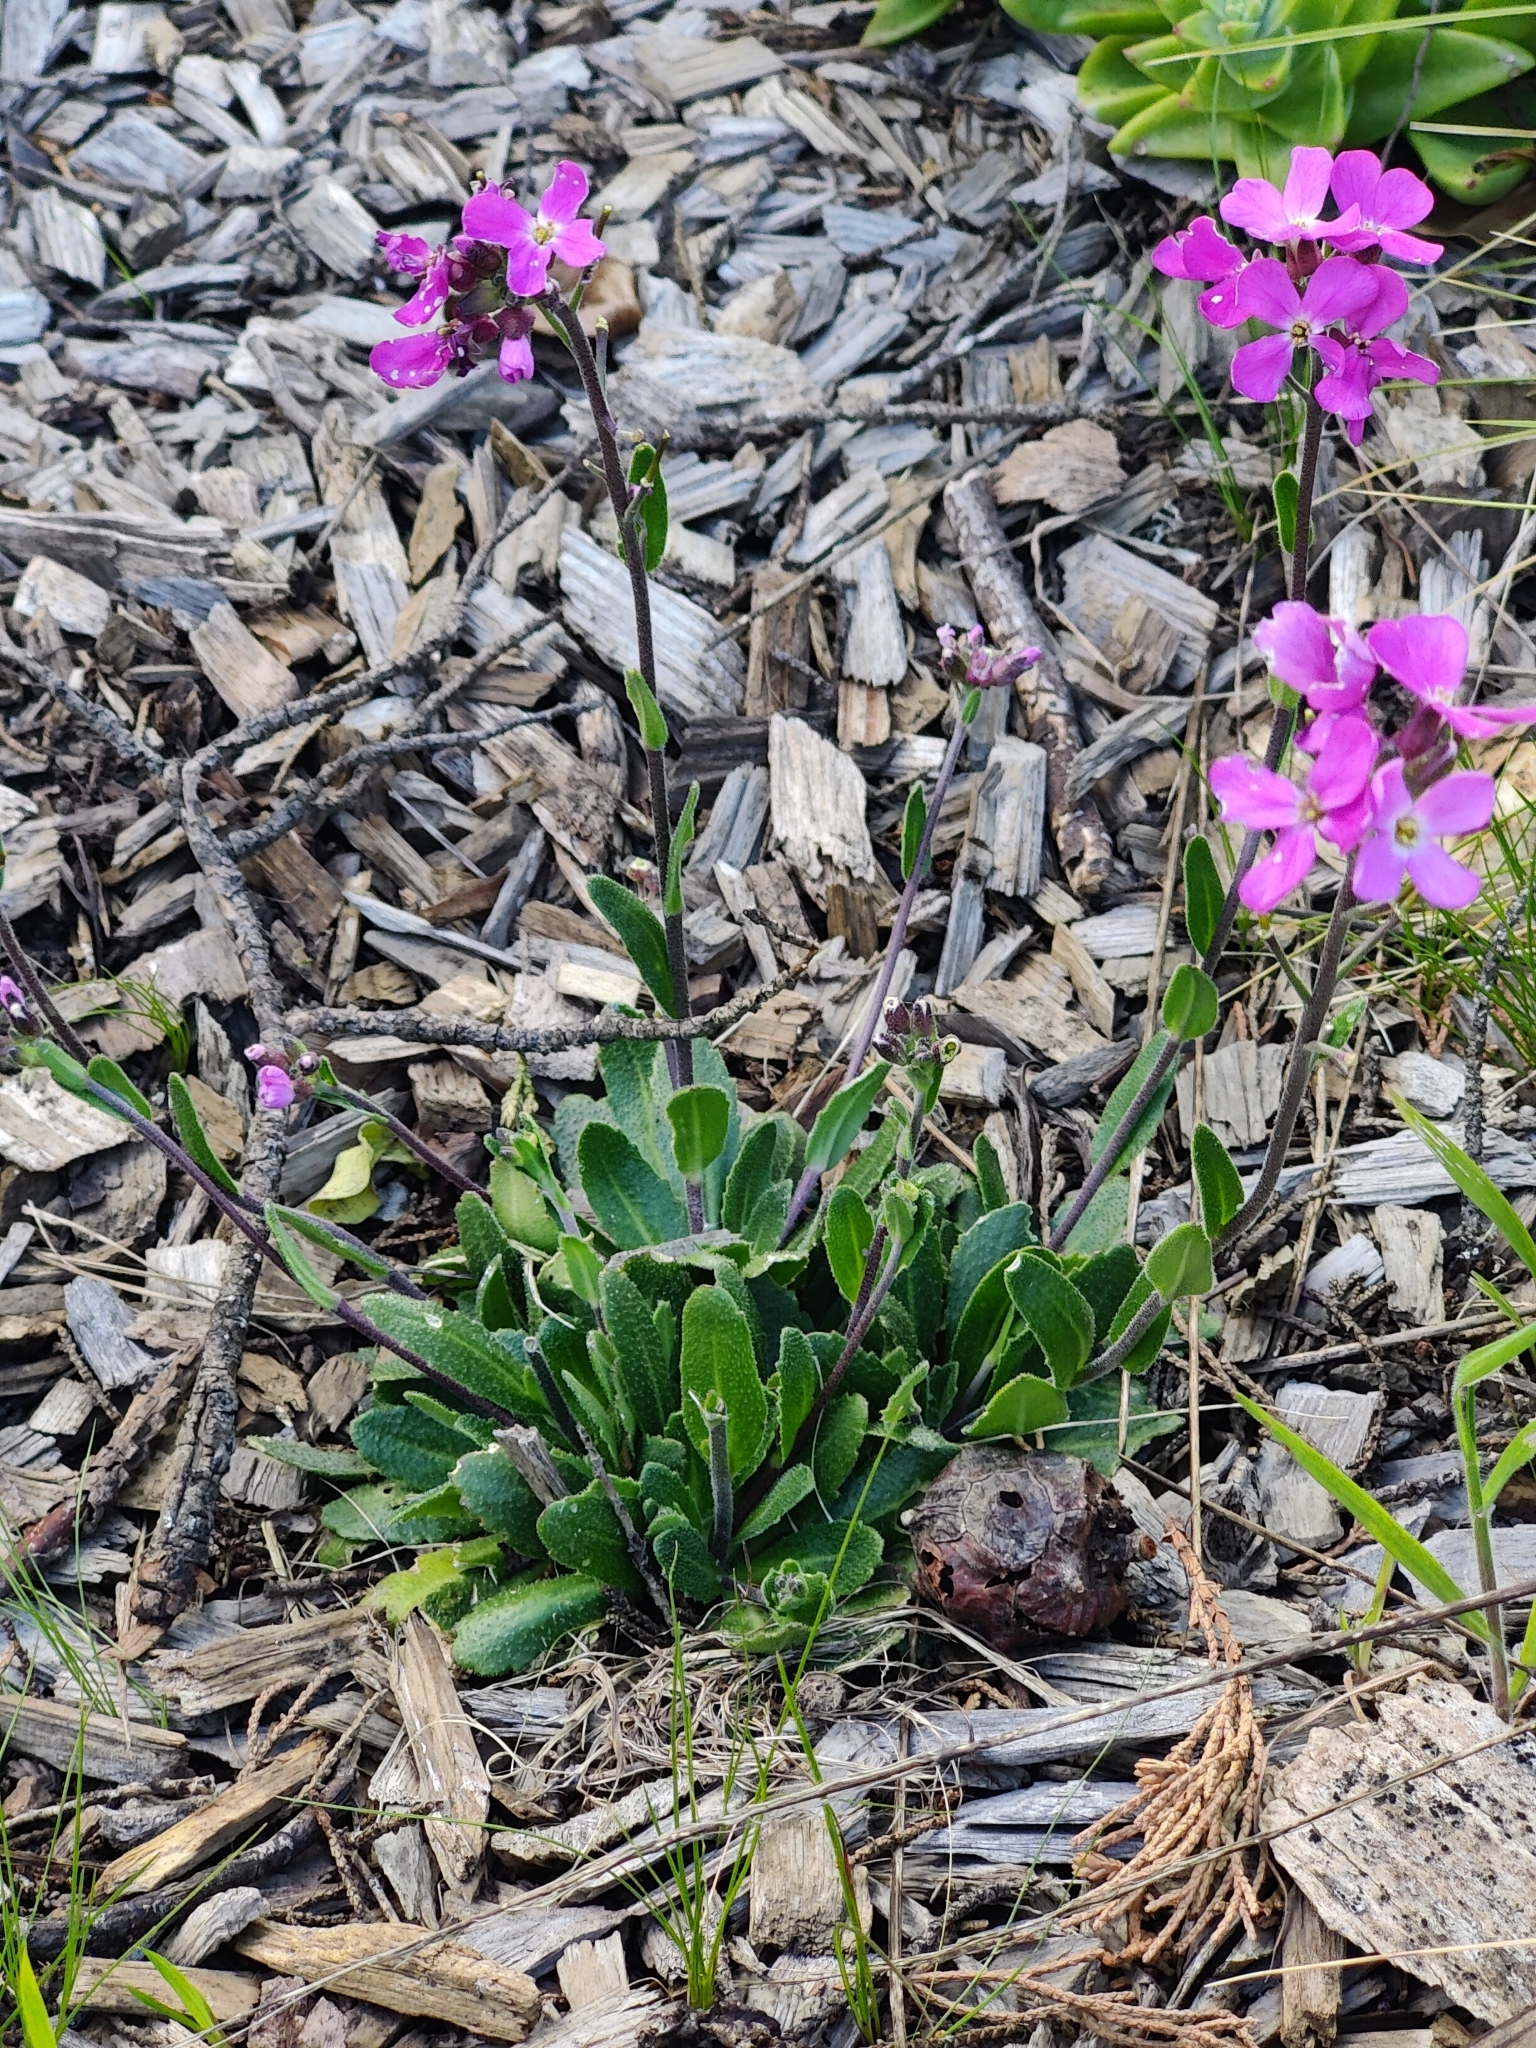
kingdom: Plantae
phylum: Tracheophyta
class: Magnoliopsida
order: Brassicales
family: Brassicaceae
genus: Arabis
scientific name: Arabis blepharophylla
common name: Rose rockcress
